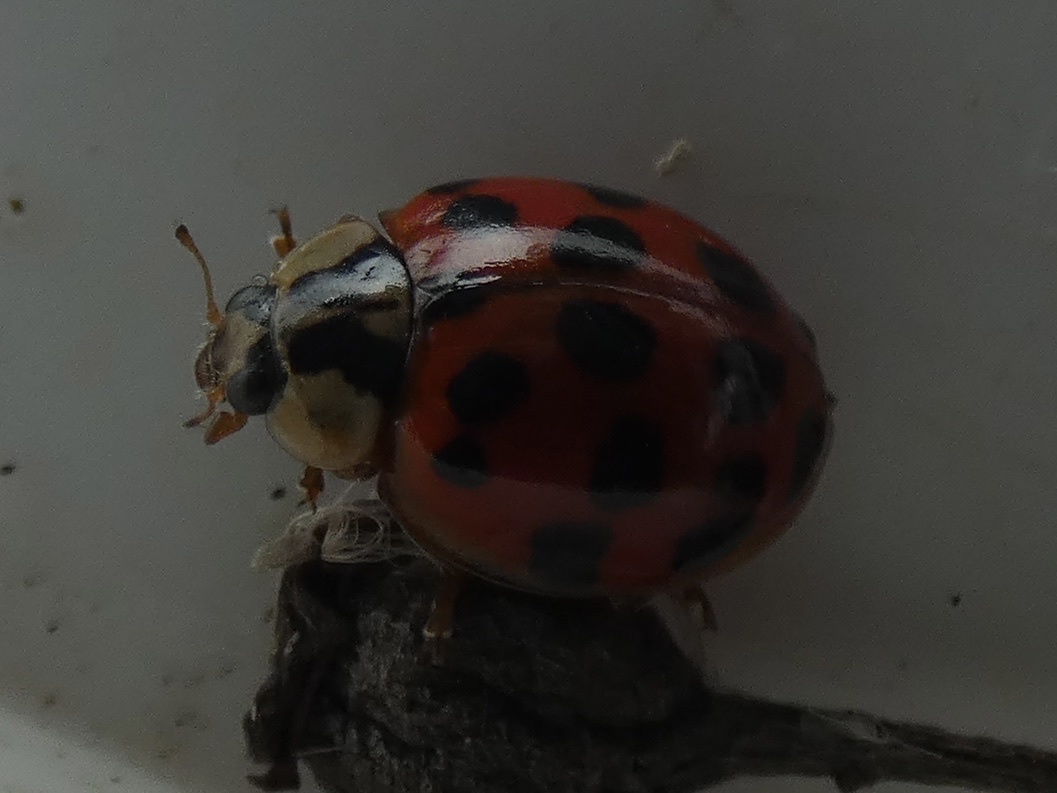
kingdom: Animalia
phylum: Arthropoda
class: Insecta
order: Coleoptera
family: Coccinellidae
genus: Harmonia
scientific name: Harmonia axyridis
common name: Harlequin ladybird
